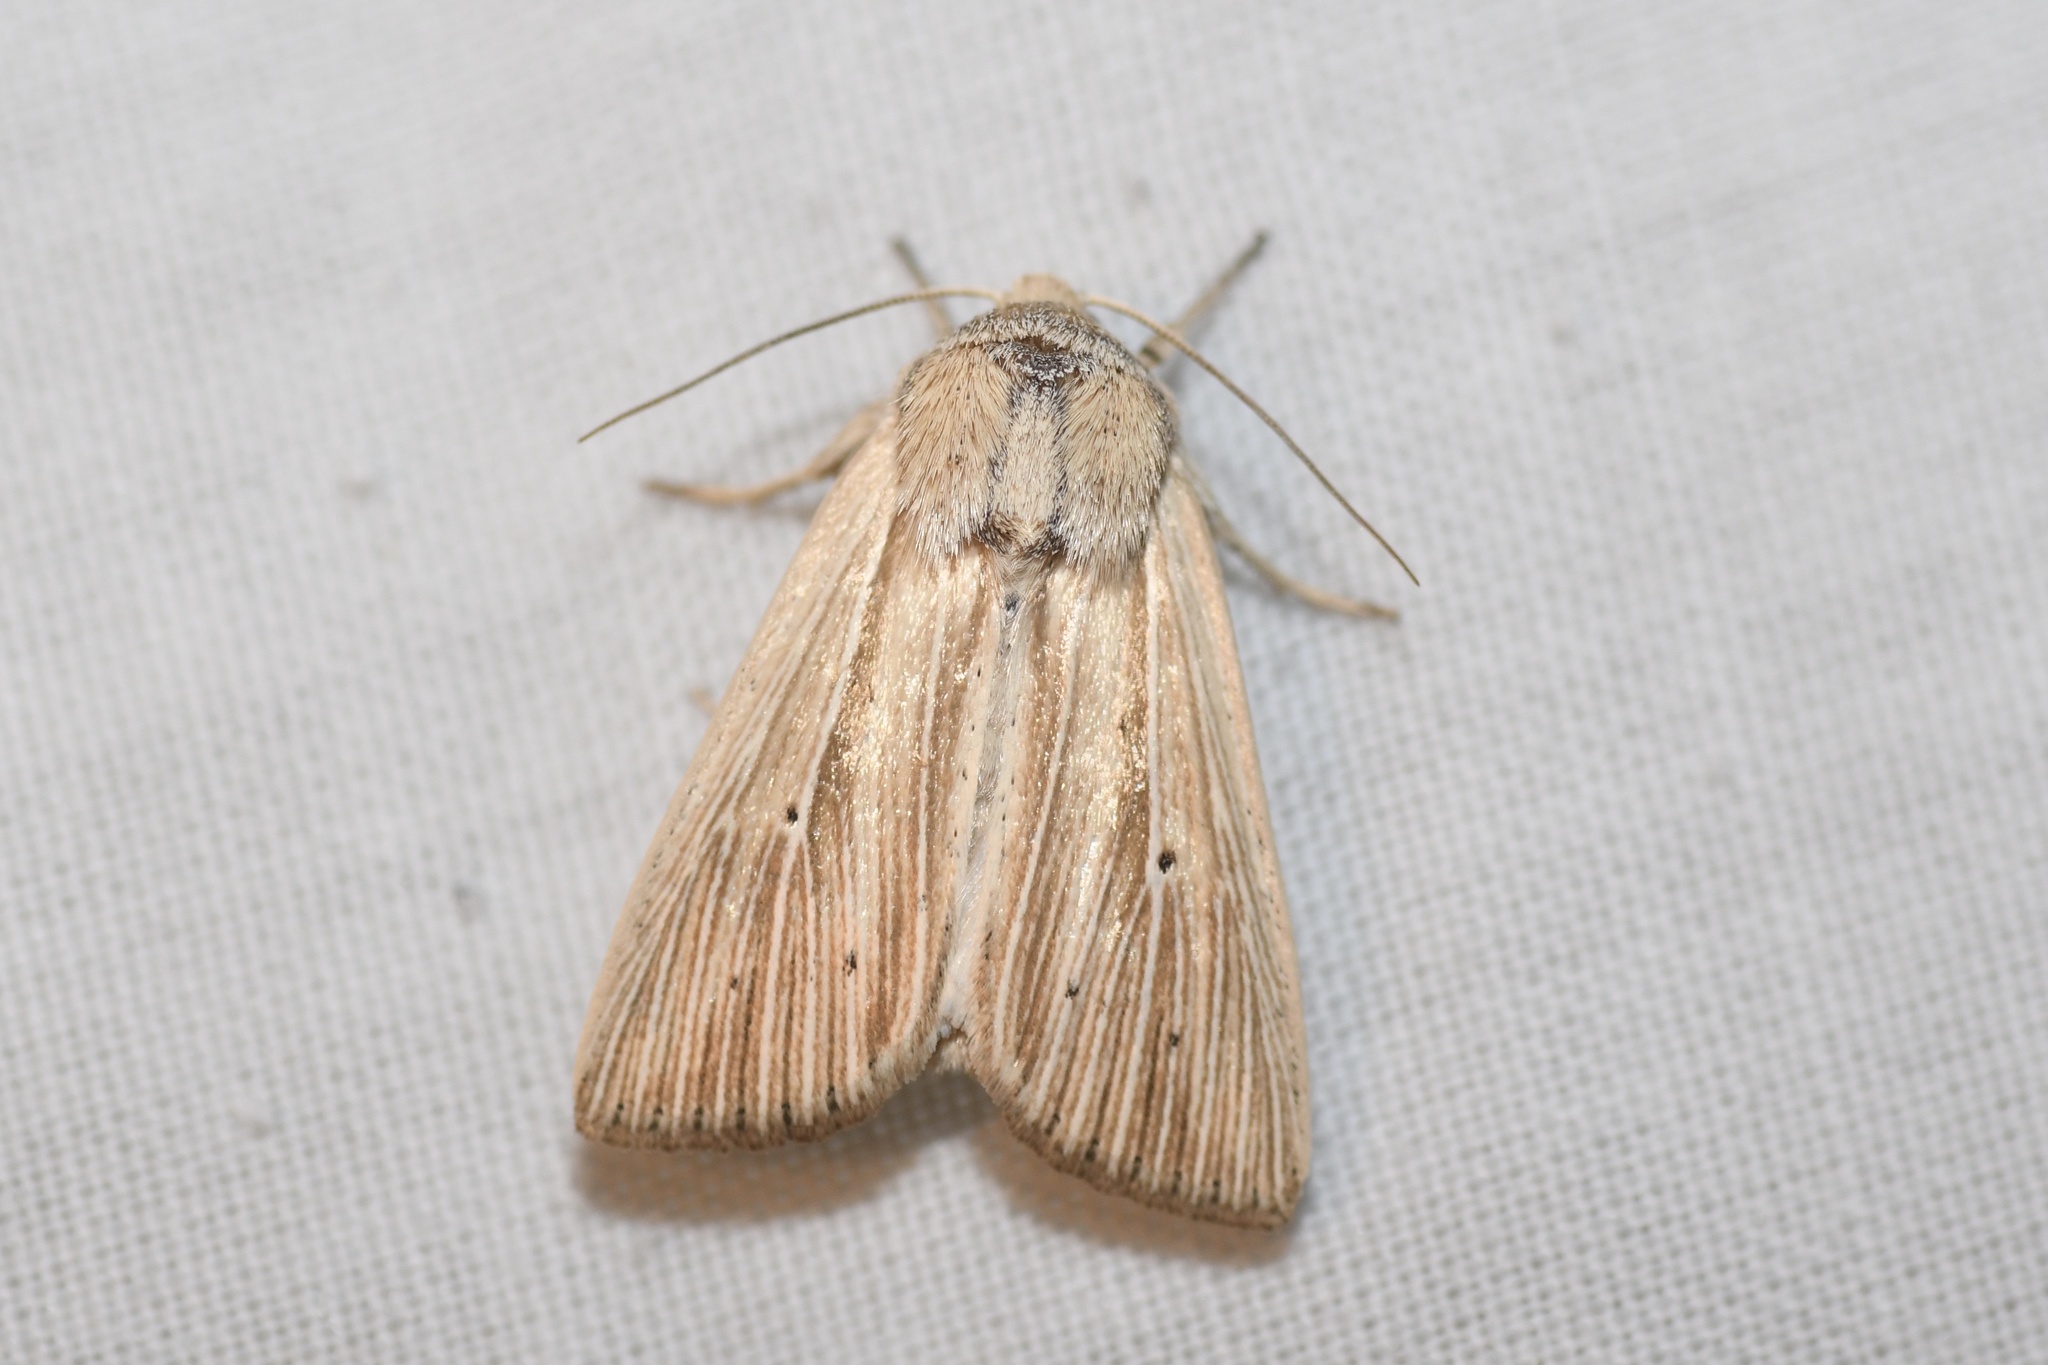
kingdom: Animalia
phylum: Arthropoda
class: Insecta
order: Lepidoptera
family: Noctuidae
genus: Mythimna
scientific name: Mythimna oxygala
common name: Lesser wainscot
